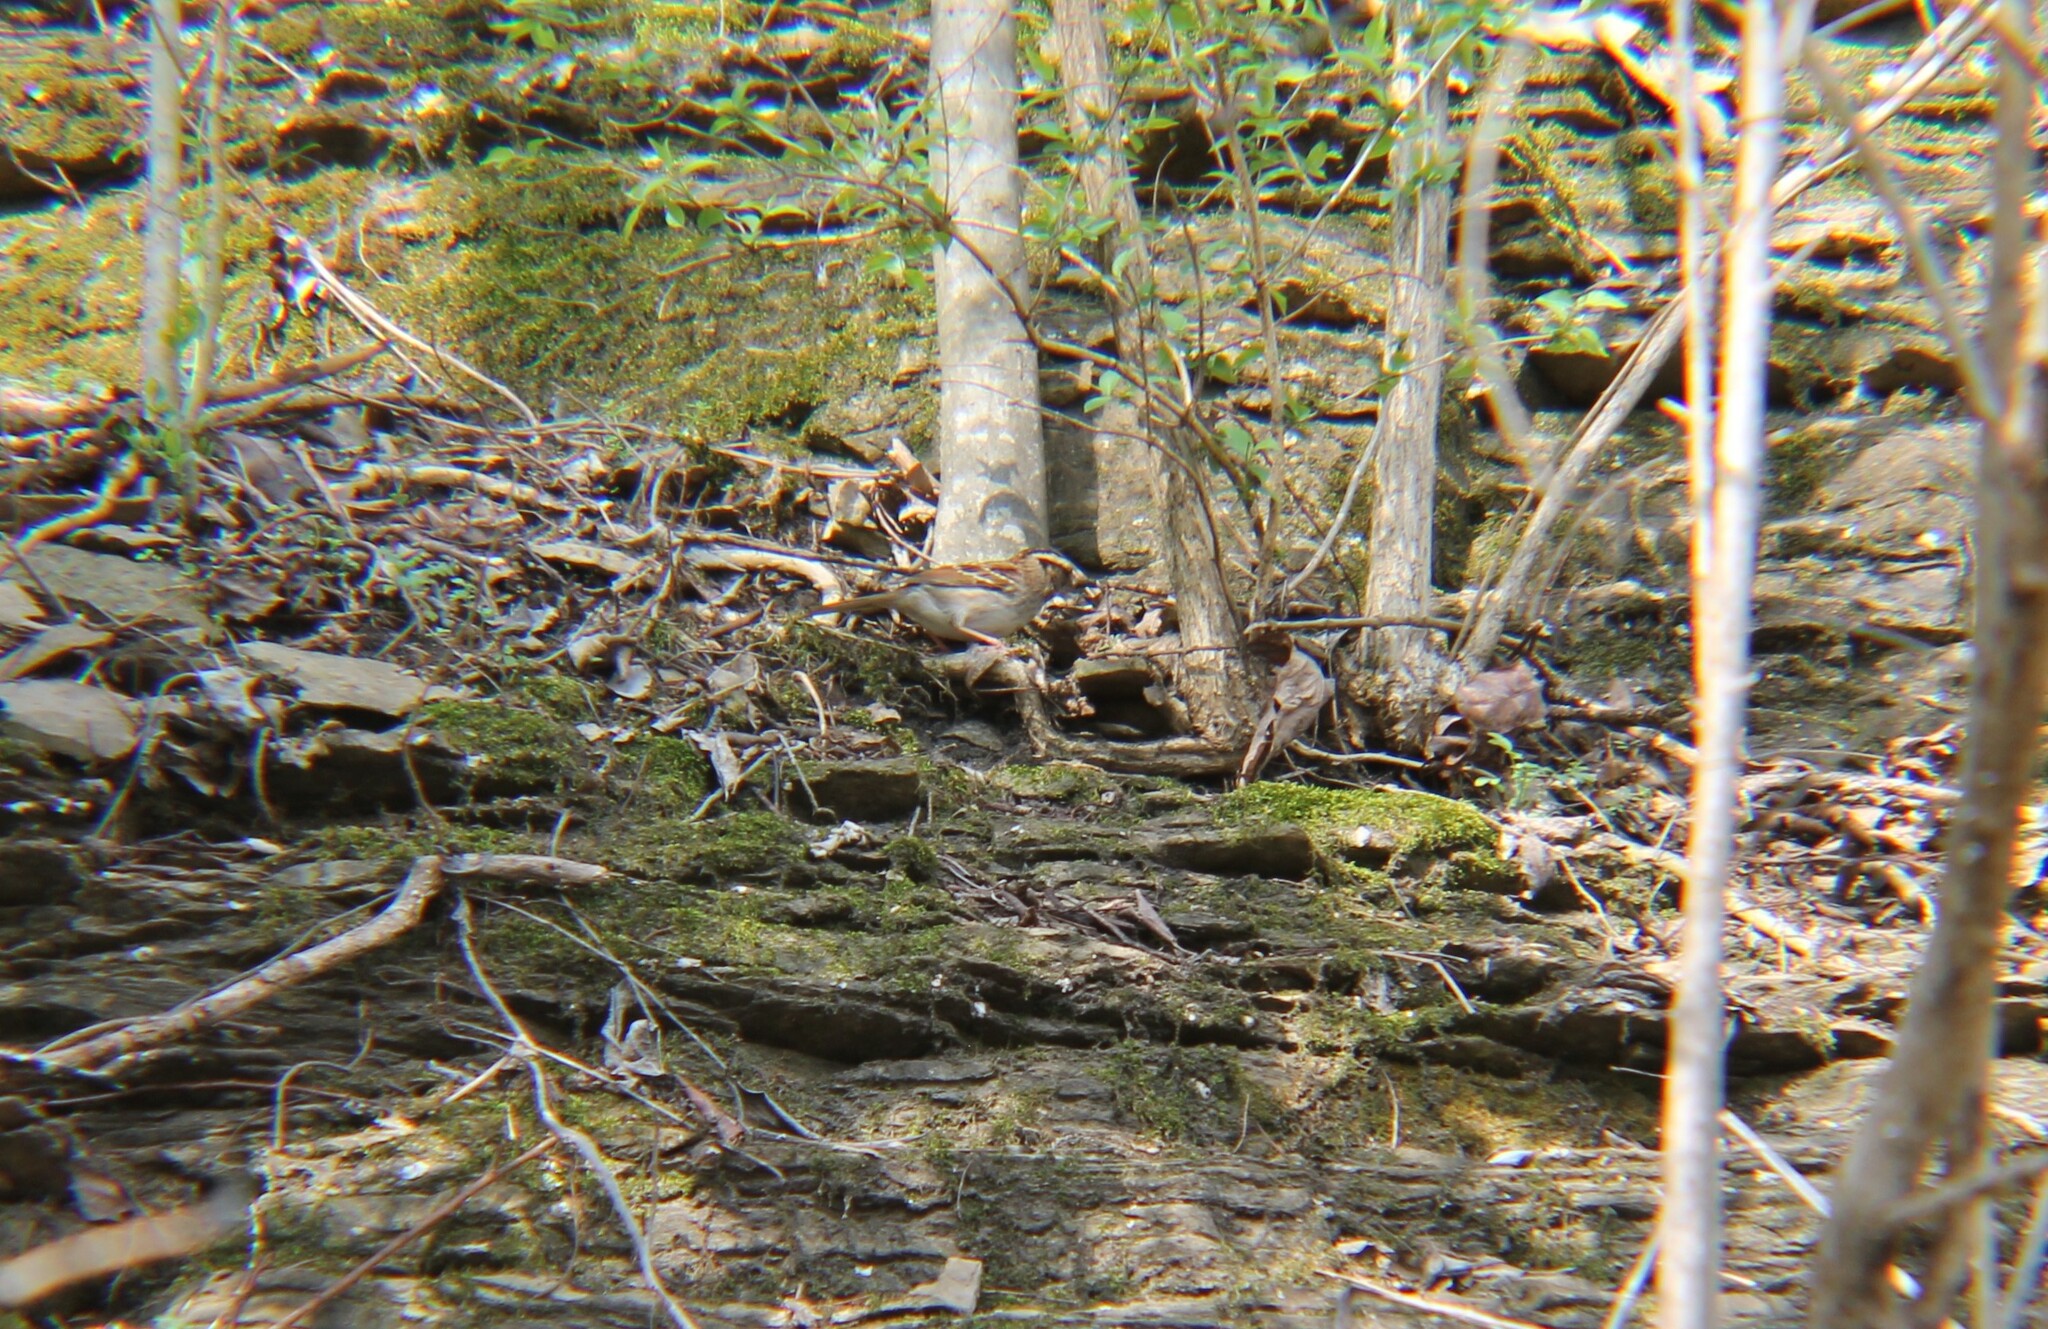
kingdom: Animalia
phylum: Chordata
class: Aves
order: Passeriformes
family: Passerellidae
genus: Zonotrichia
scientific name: Zonotrichia albicollis
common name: White-throated sparrow
